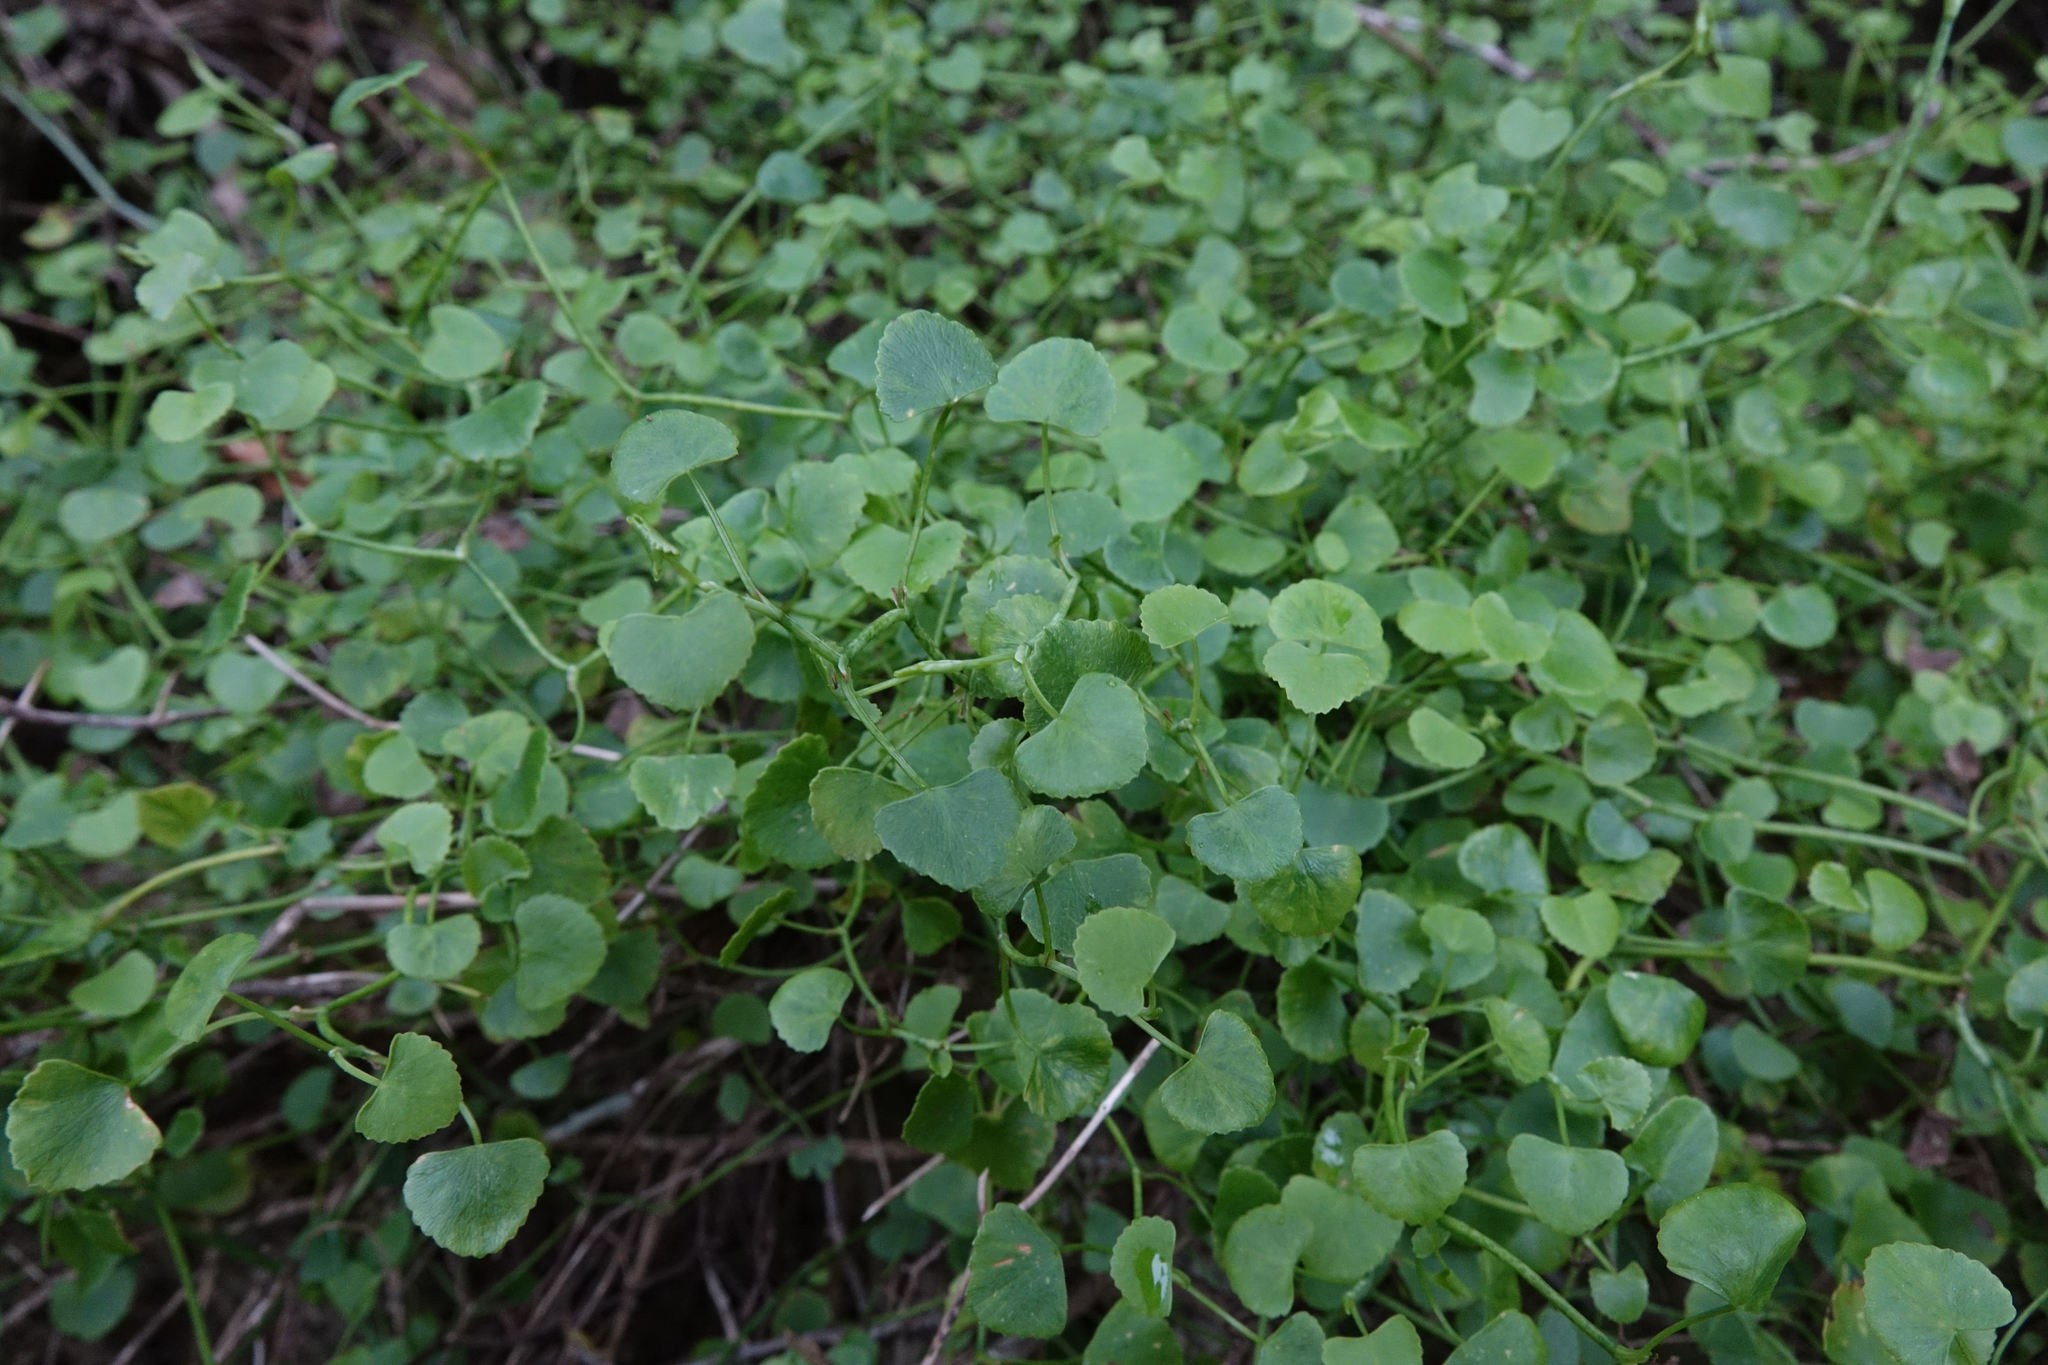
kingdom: Plantae
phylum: Tracheophyta
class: Magnoliopsida
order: Apiales
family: Apiaceae
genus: Scandia
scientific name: Scandia geniculata
